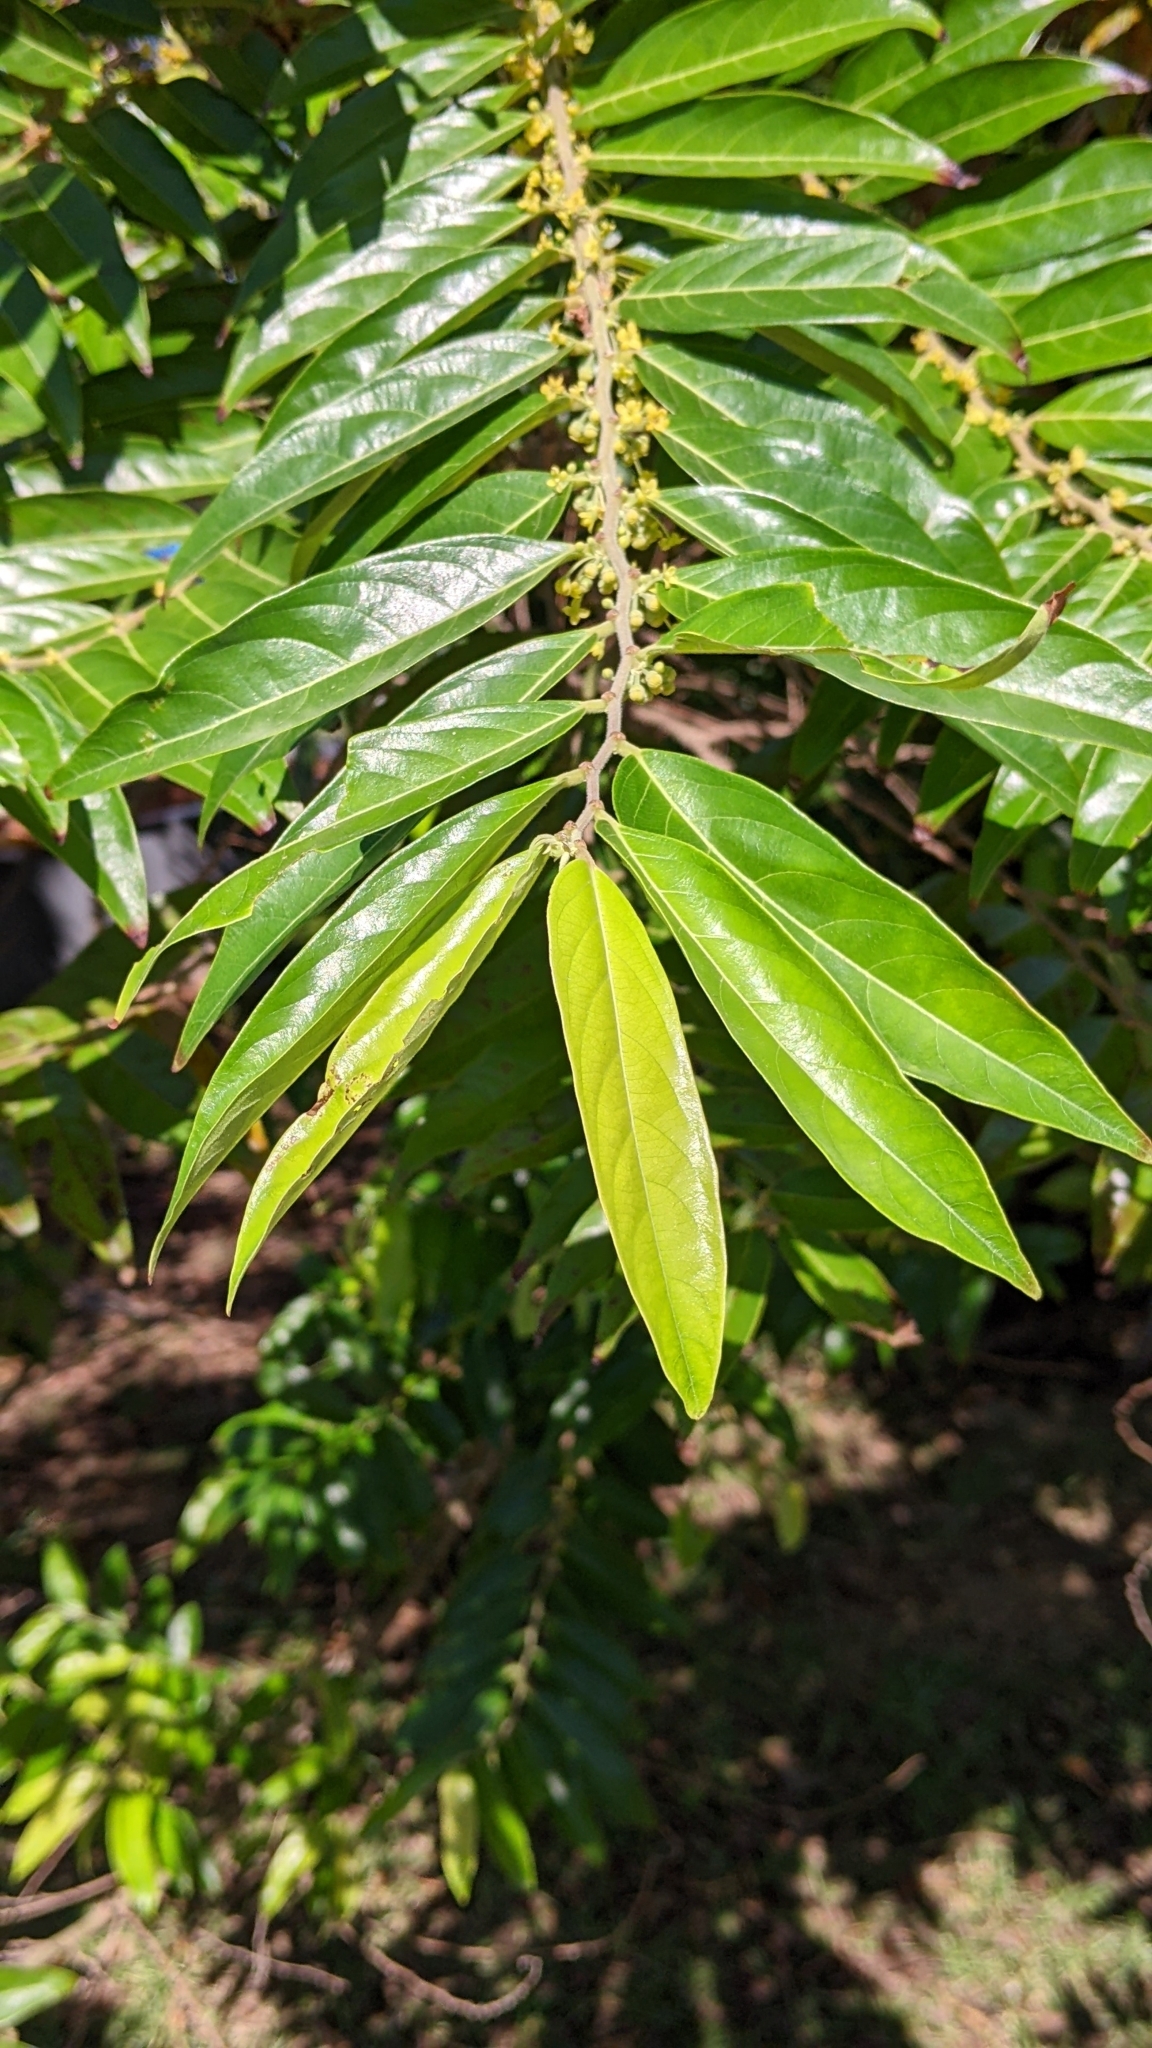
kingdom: Plantae
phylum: Tracheophyta
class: Magnoliopsida
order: Malpighiales
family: Phyllanthaceae
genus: Glochidion
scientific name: Glochidion philippicum
